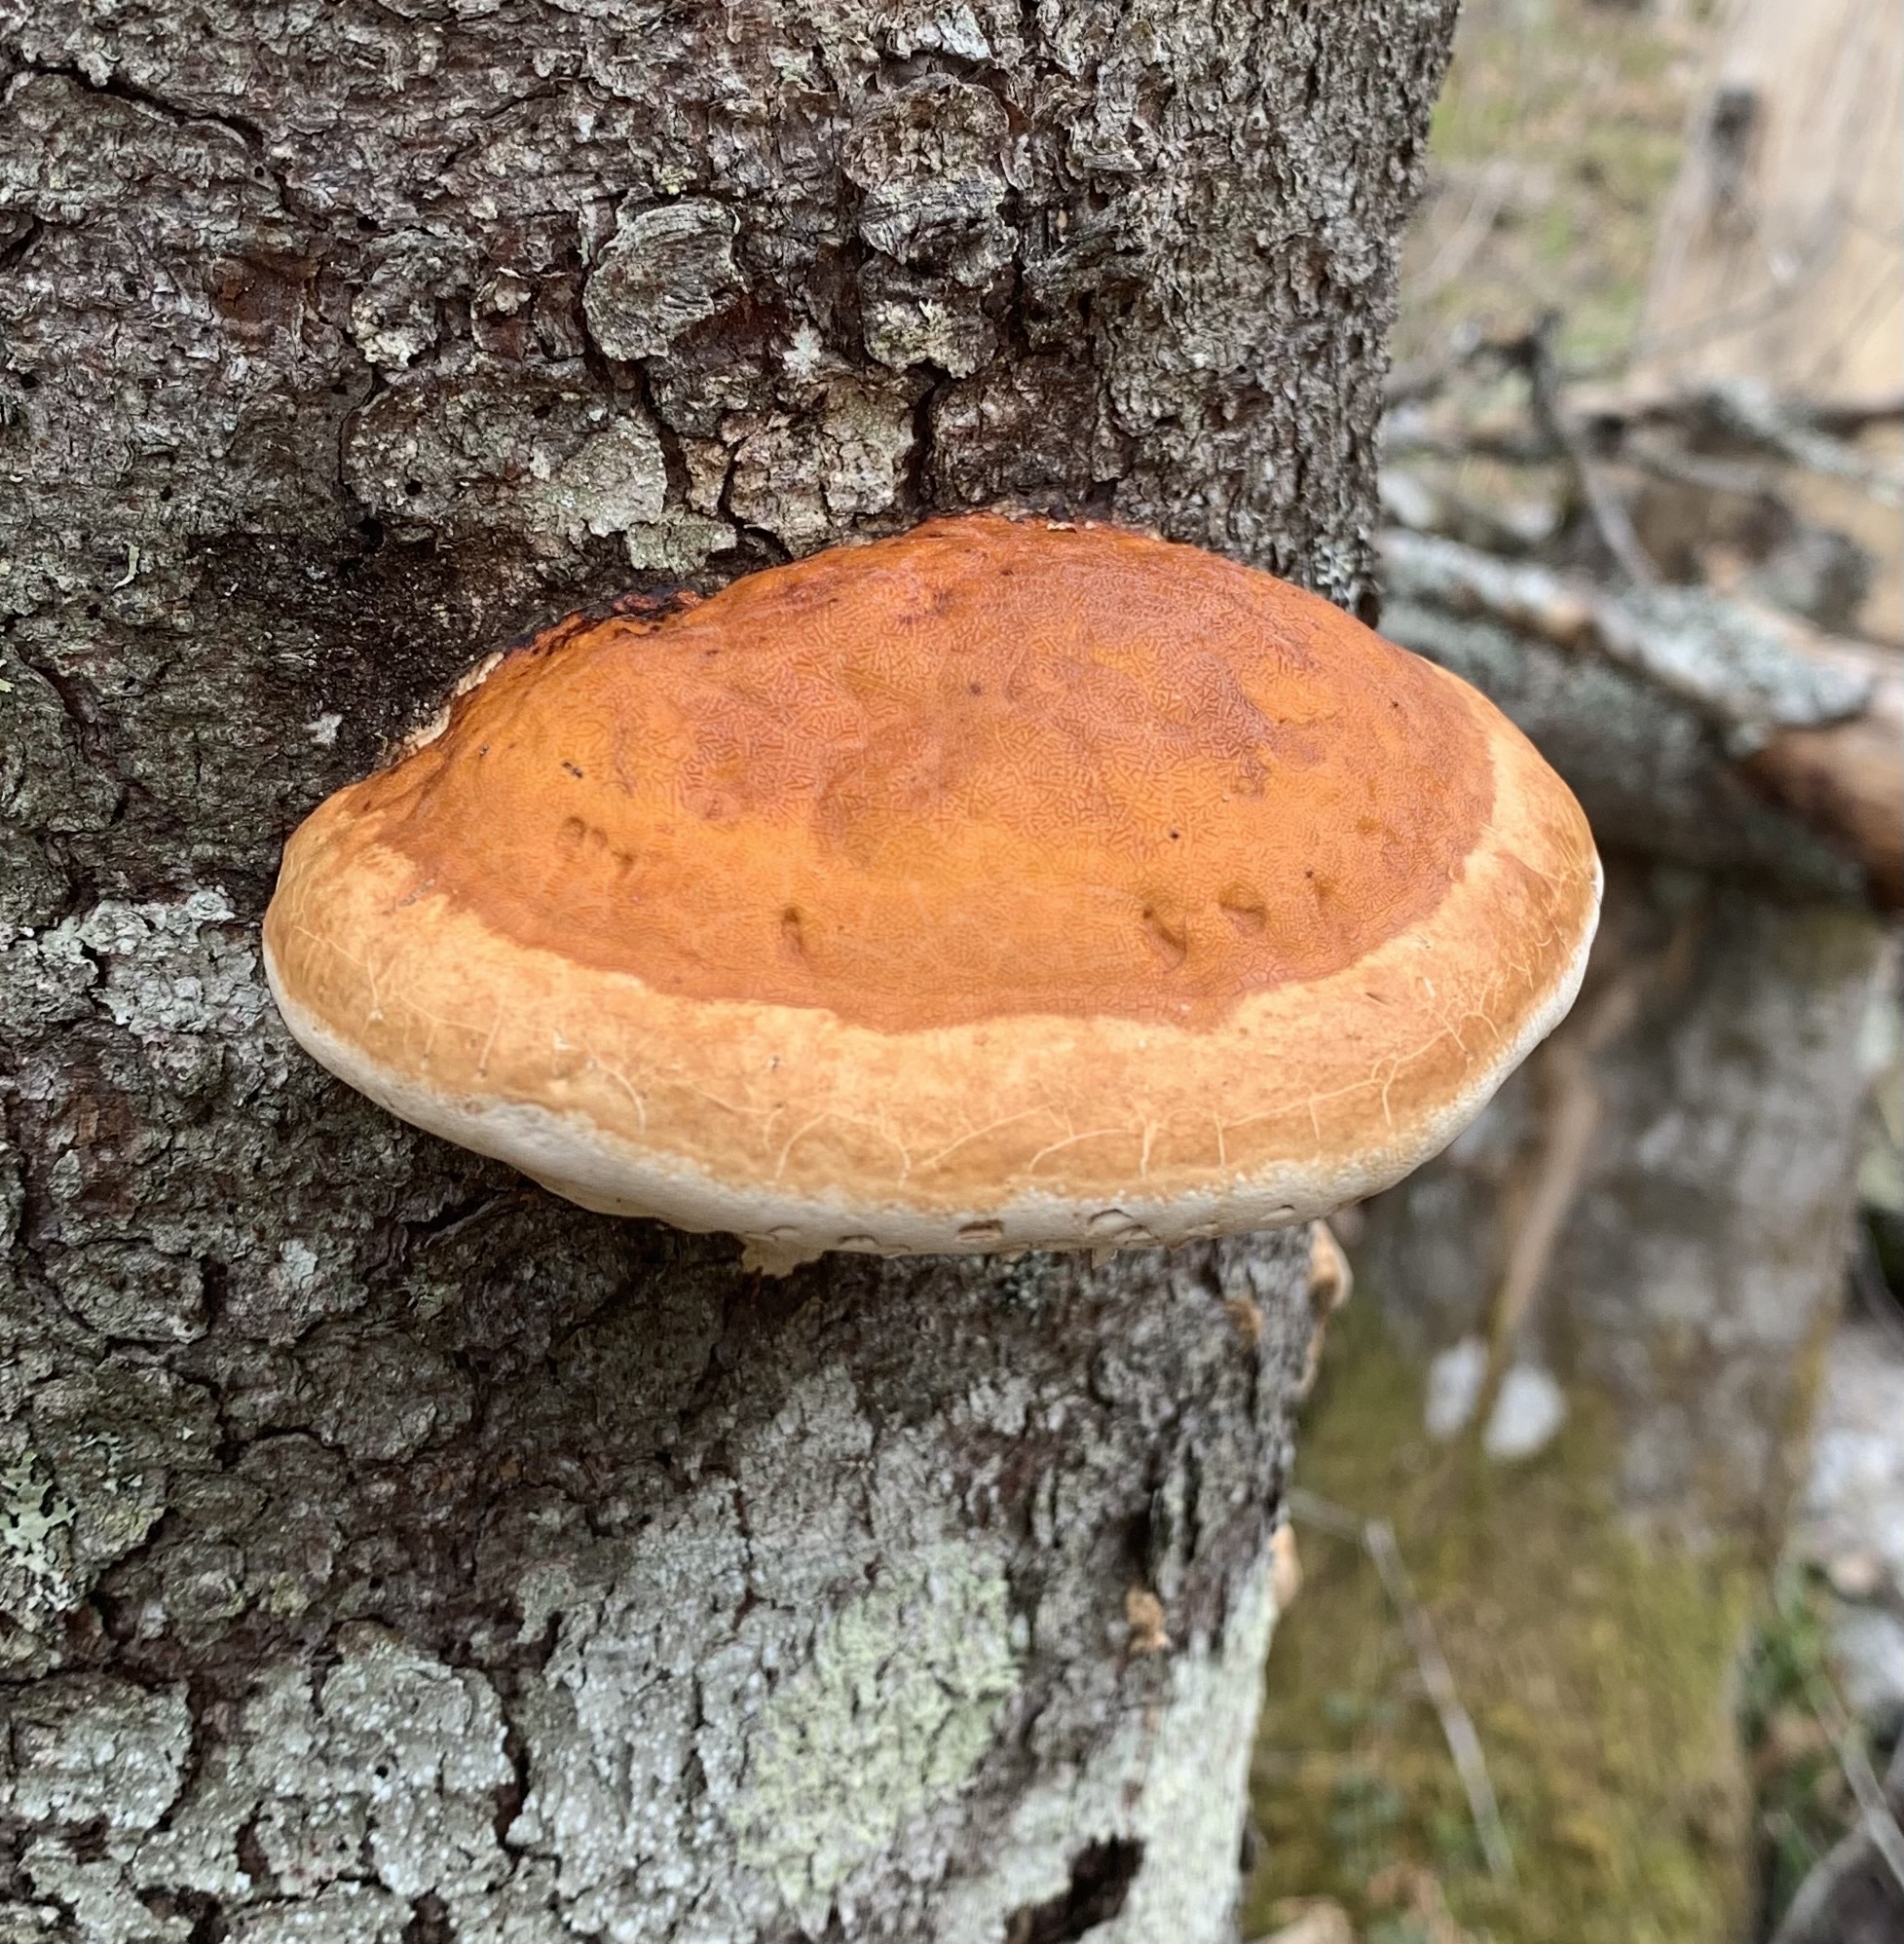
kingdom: Fungi
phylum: Basidiomycota
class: Agaricomycetes
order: Polyporales
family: Fomitopsidaceae
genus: Fomitopsis
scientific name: Fomitopsis mounceae
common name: Northern red belt
